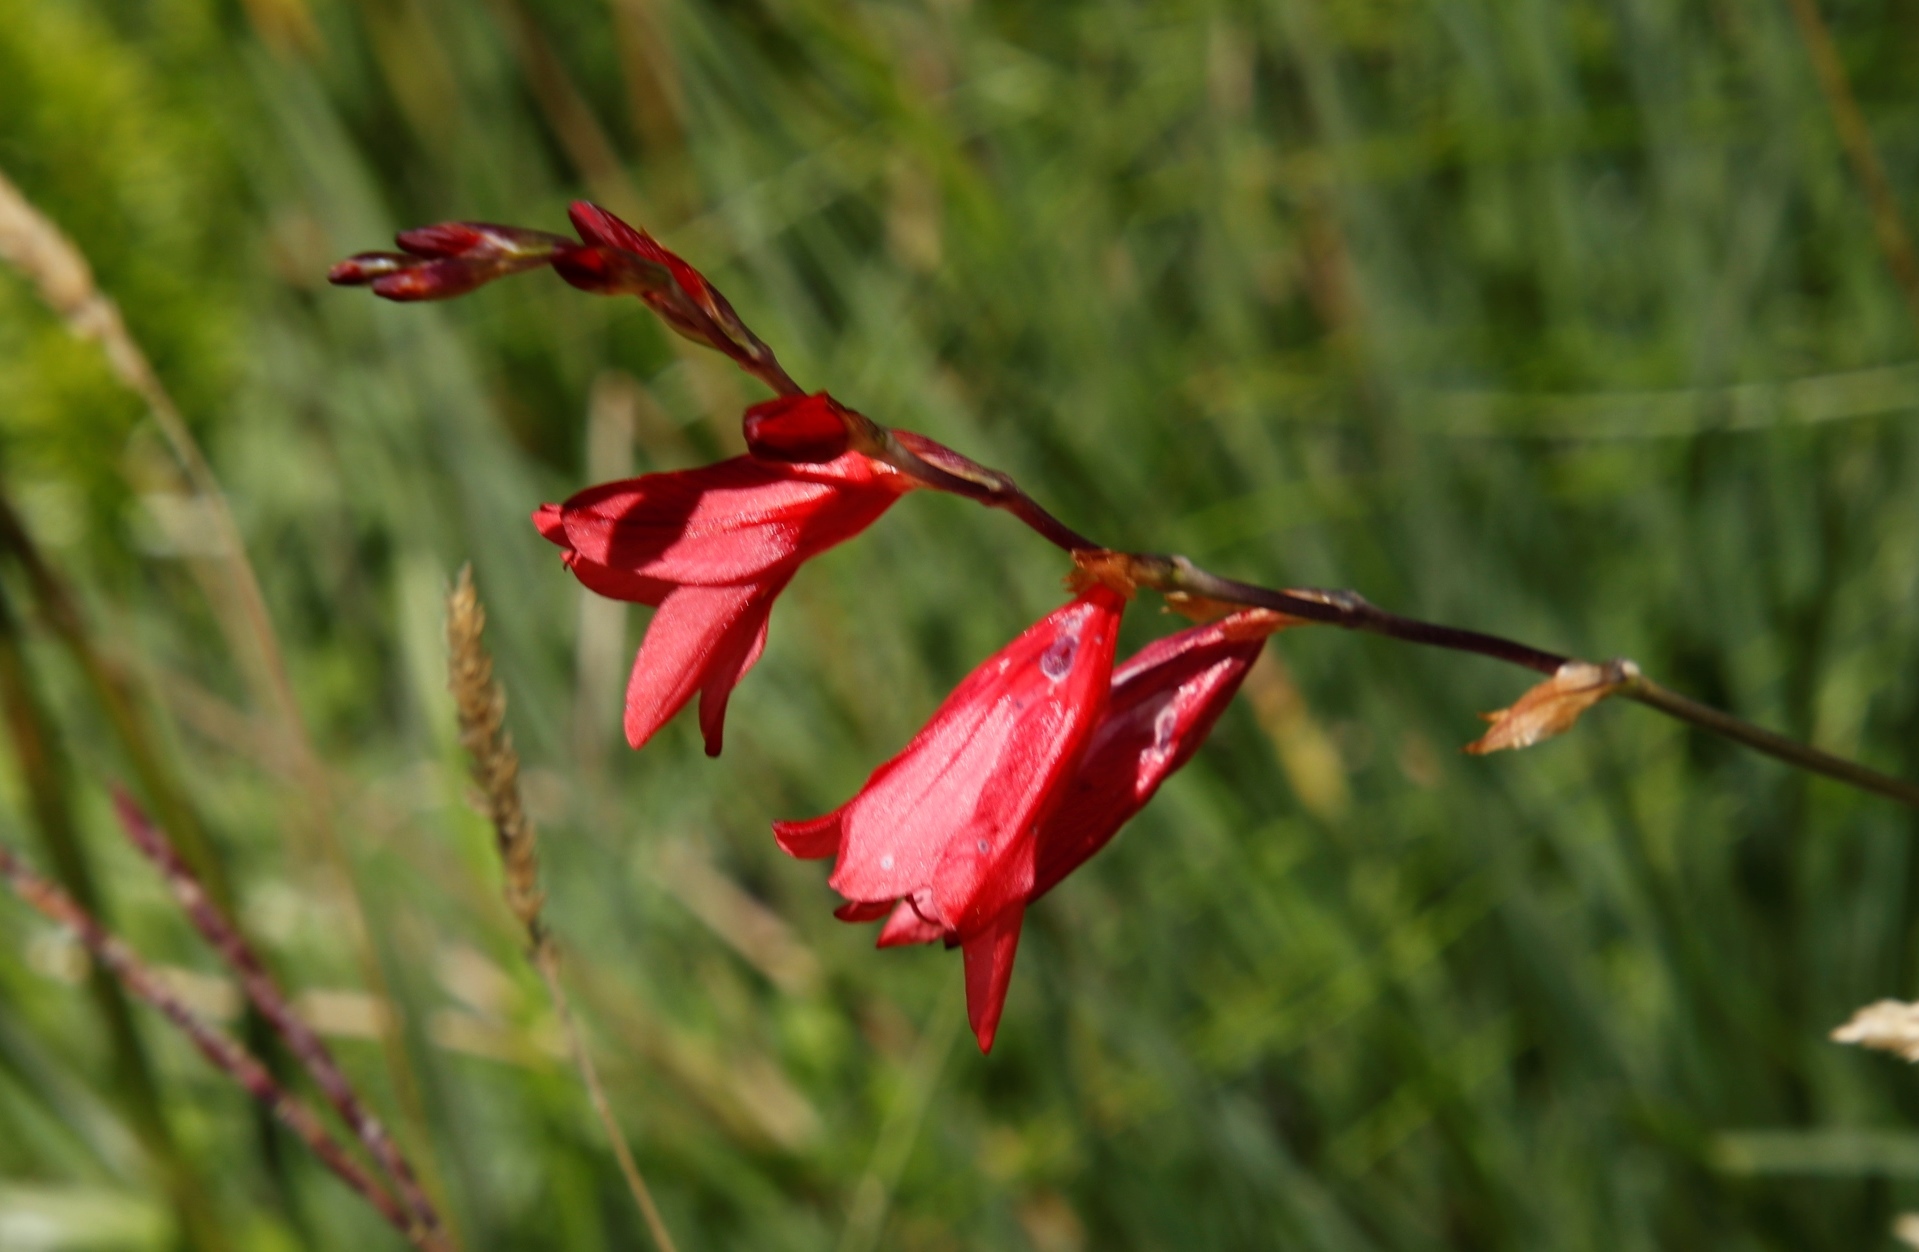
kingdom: Plantae
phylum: Tracheophyta
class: Liliopsida
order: Asparagales
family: Iridaceae
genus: Tritonia
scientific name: Tritonia drakensbergensis
